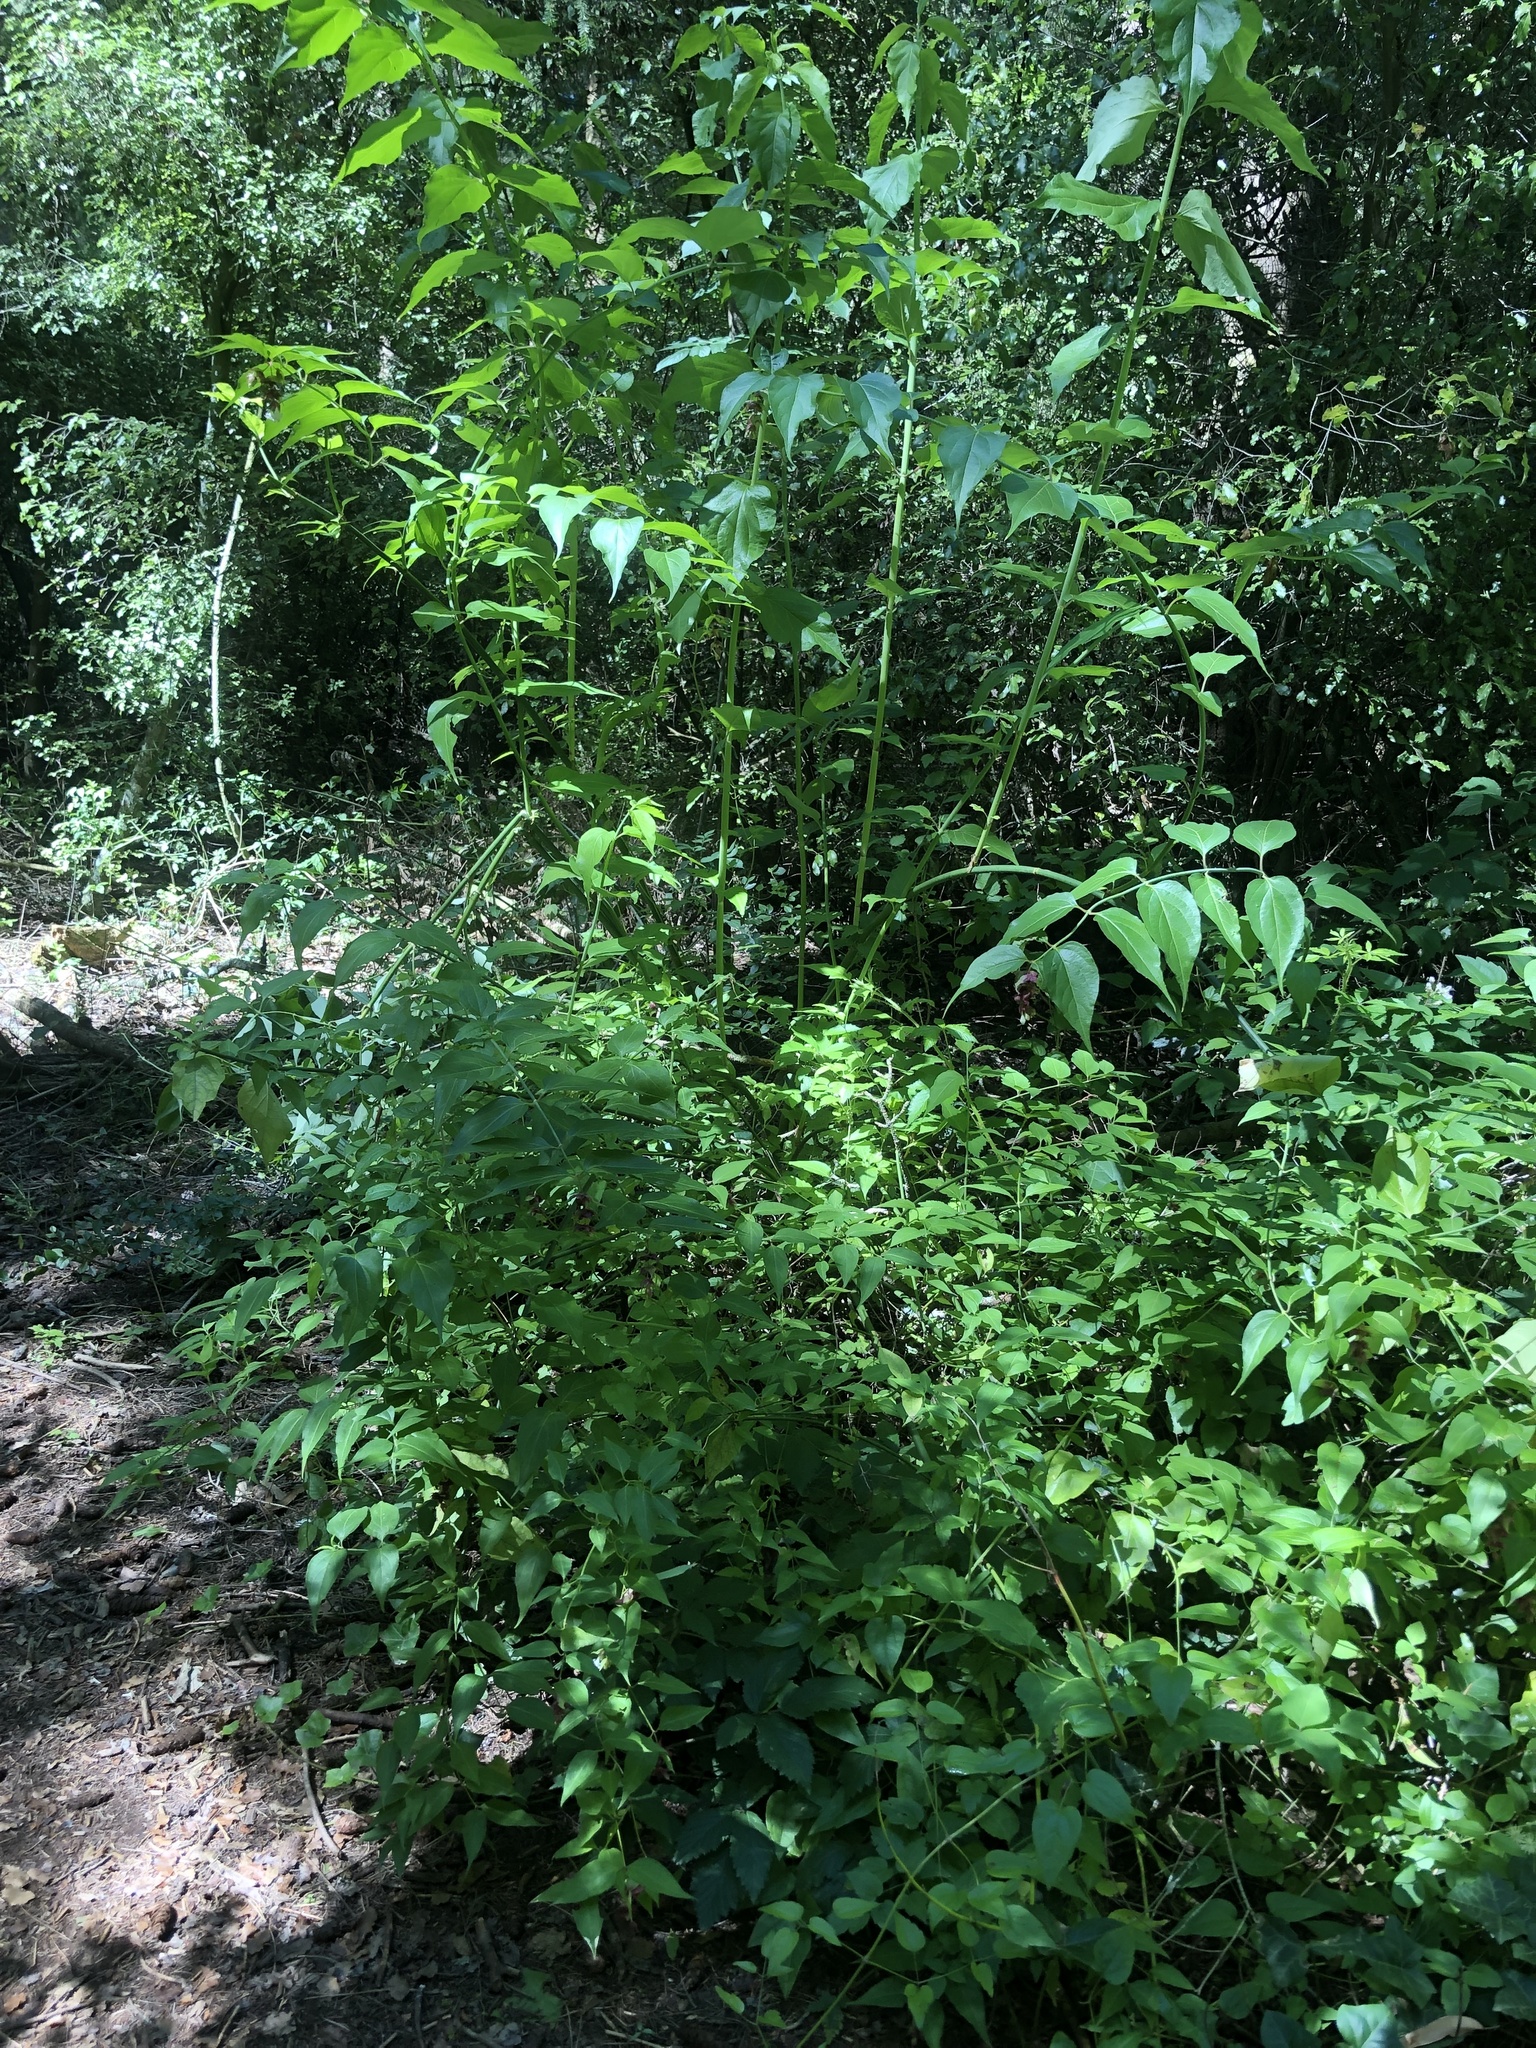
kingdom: Plantae
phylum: Tracheophyta
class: Magnoliopsida
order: Dipsacales
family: Caprifoliaceae
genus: Leycesteria
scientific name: Leycesteria formosa
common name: Himalayan honeysuckle
